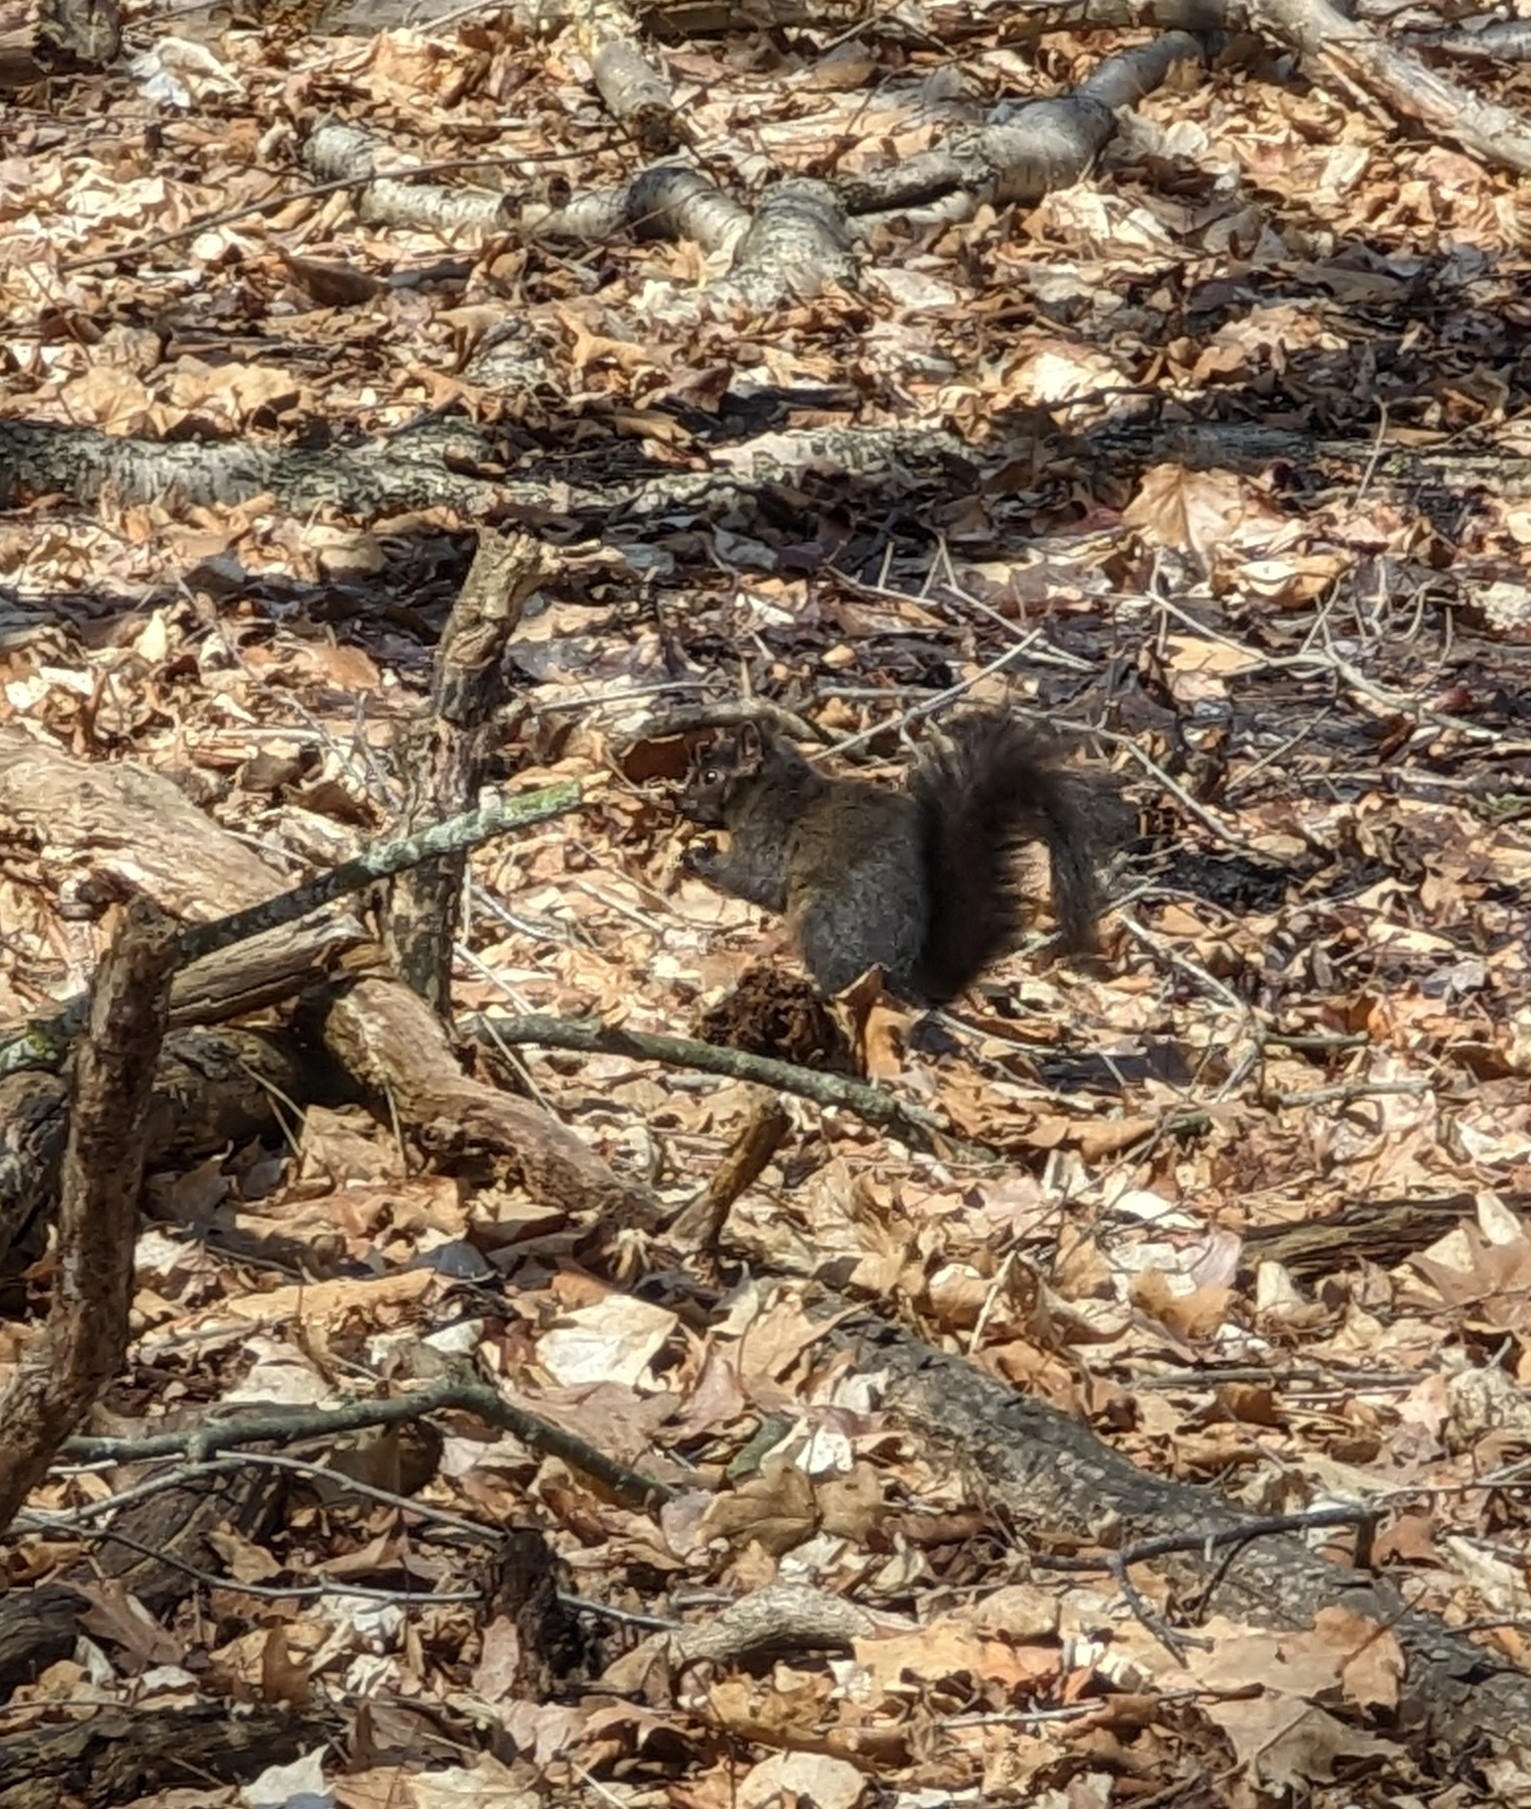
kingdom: Animalia
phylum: Chordata
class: Mammalia
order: Rodentia
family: Sciuridae
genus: Sciurus
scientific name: Sciurus carolinensis
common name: Eastern gray squirrel
